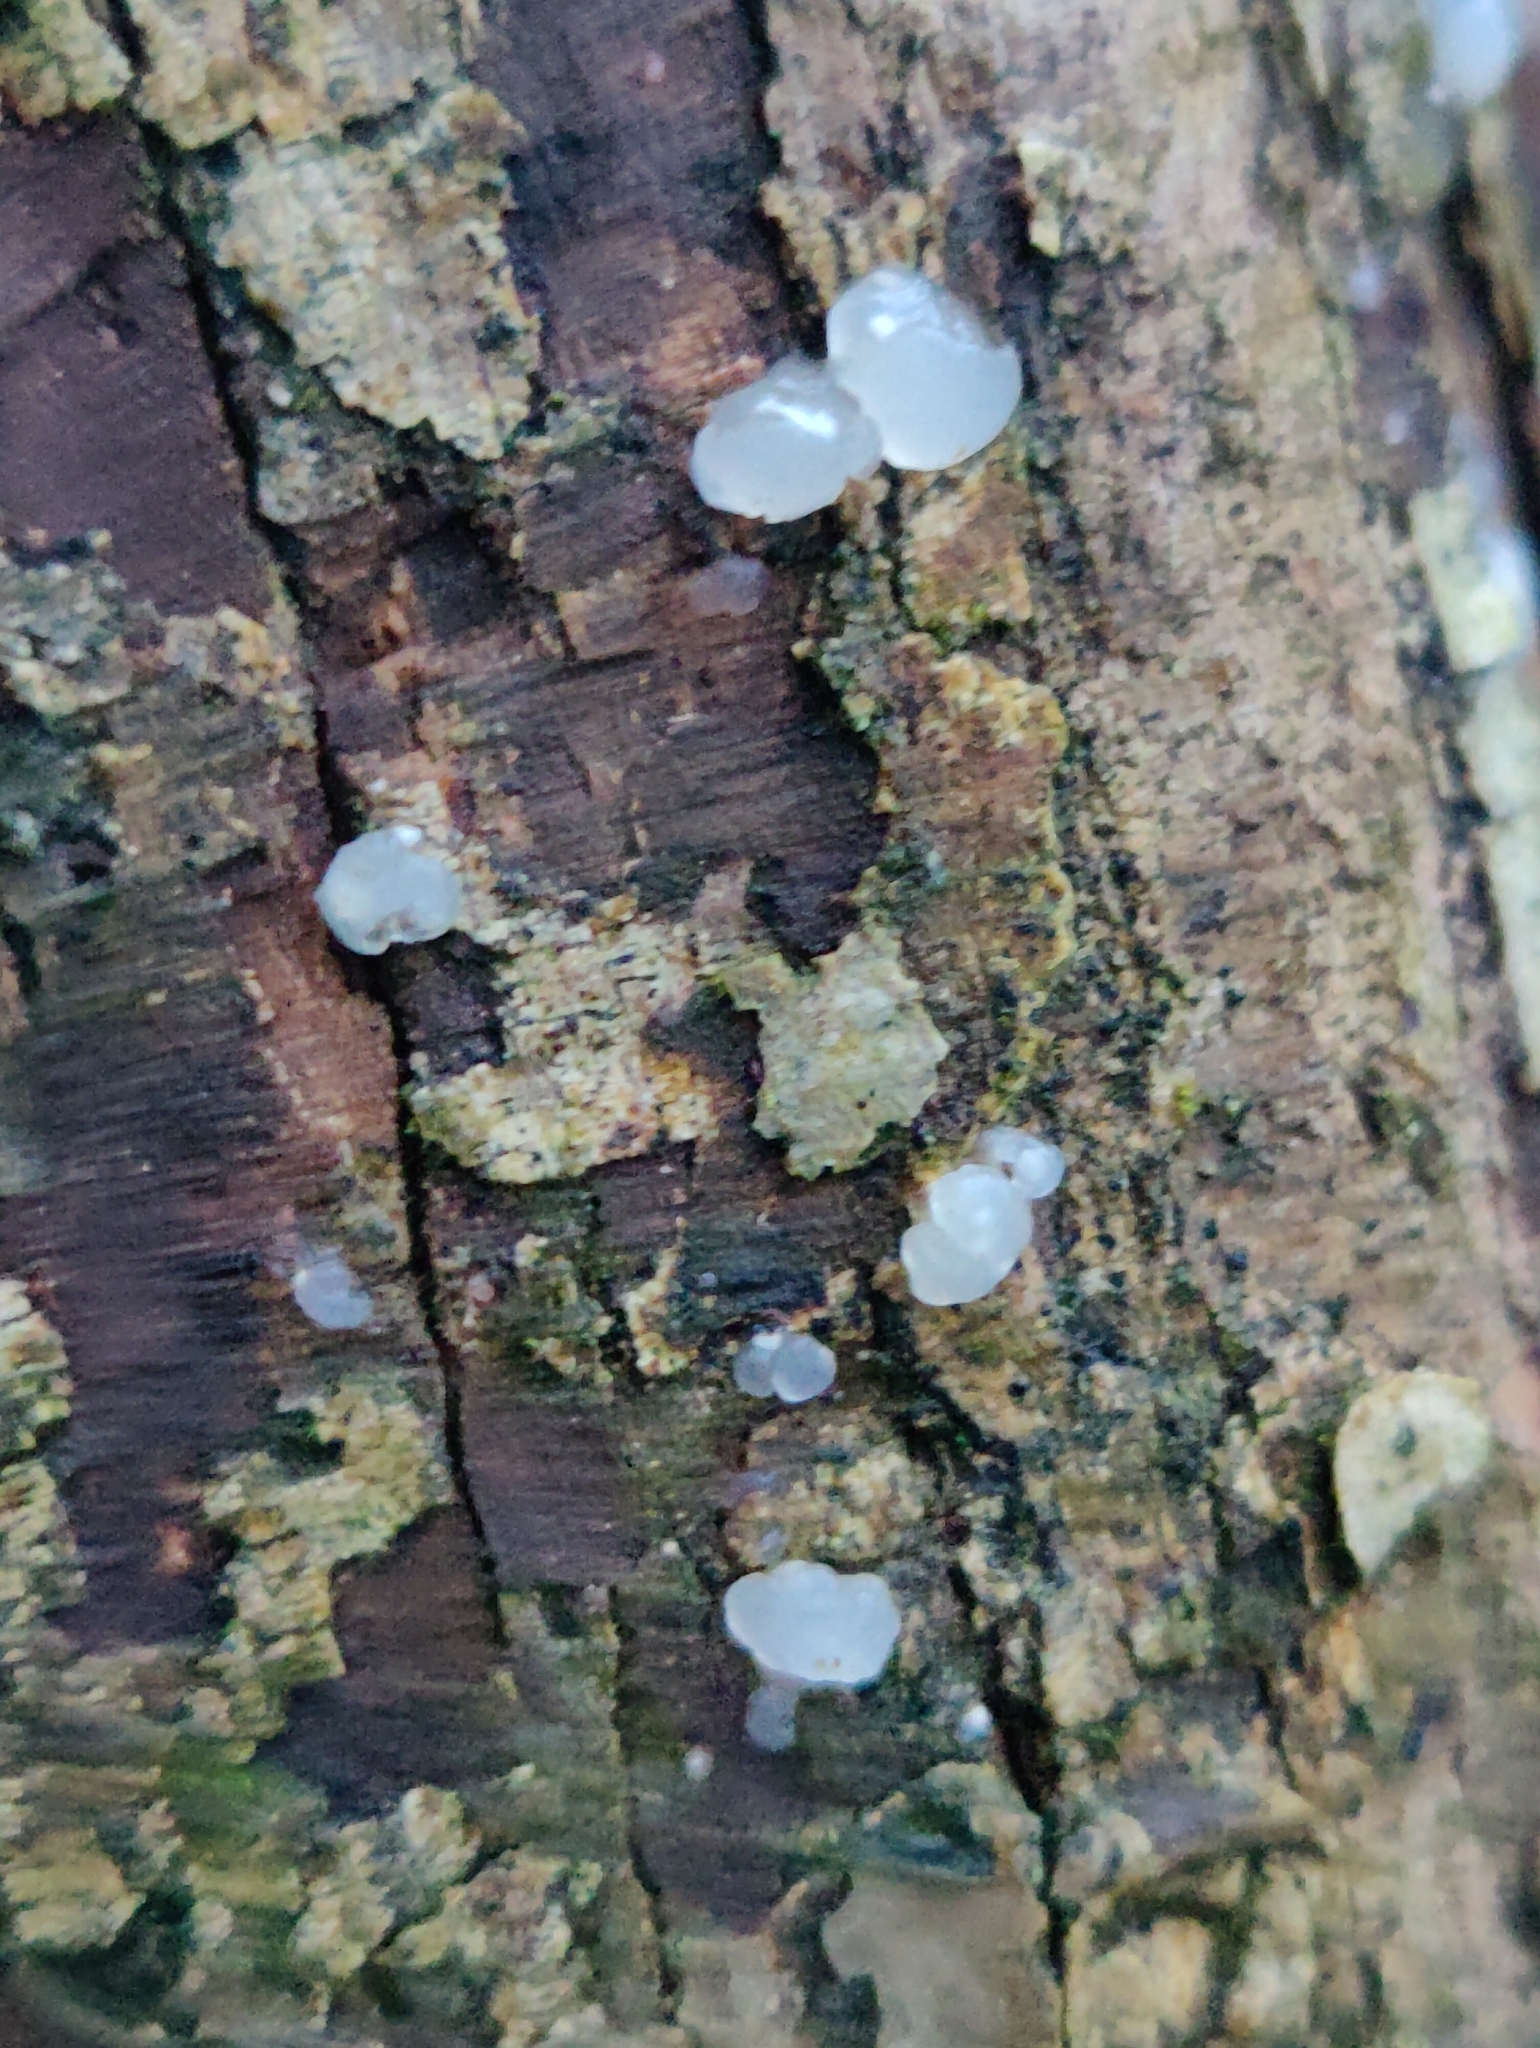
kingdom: Fungi
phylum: Basidiomycota
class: Agaricomycetes
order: Auriculariales
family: Hyaloriaceae
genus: Myxarium
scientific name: Myxarium nucleatum
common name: Crystal brain fungus
